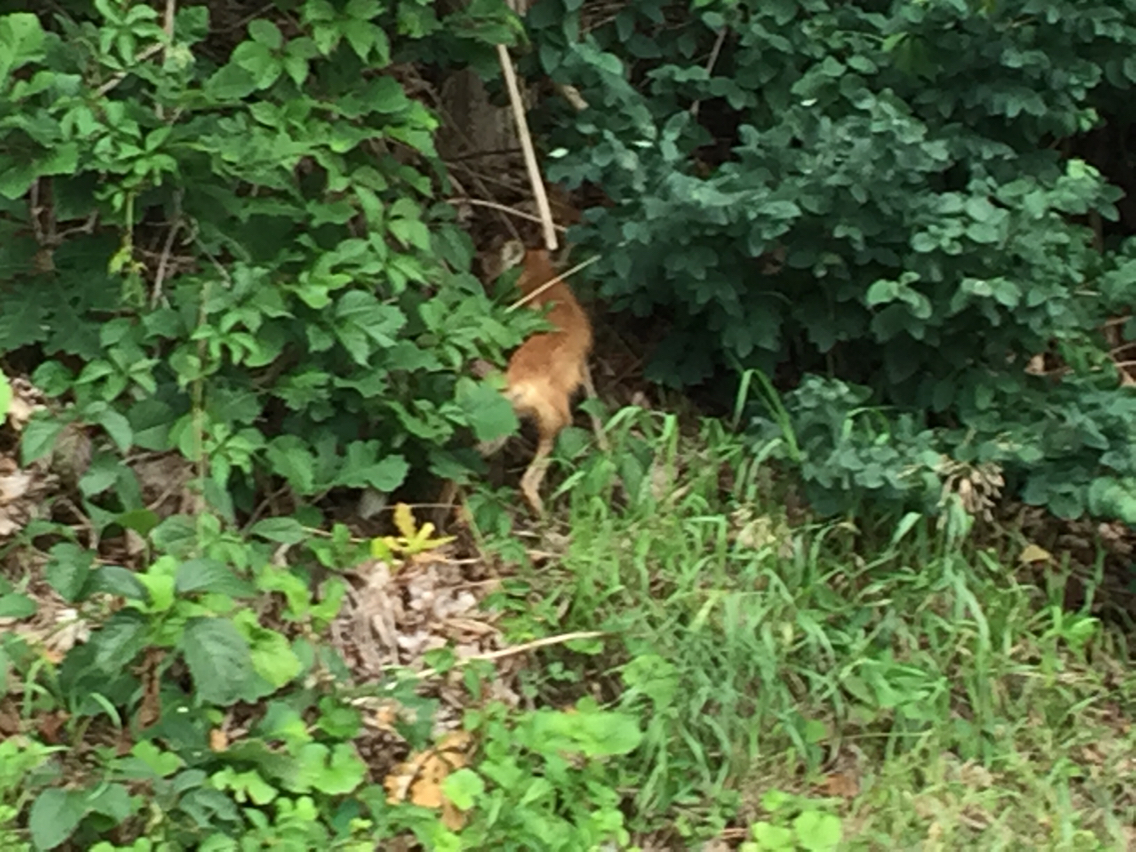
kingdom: Animalia
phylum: Chordata
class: Mammalia
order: Carnivora
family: Canidae
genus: Vulpes
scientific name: Vulpes vulpes
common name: Red fox
